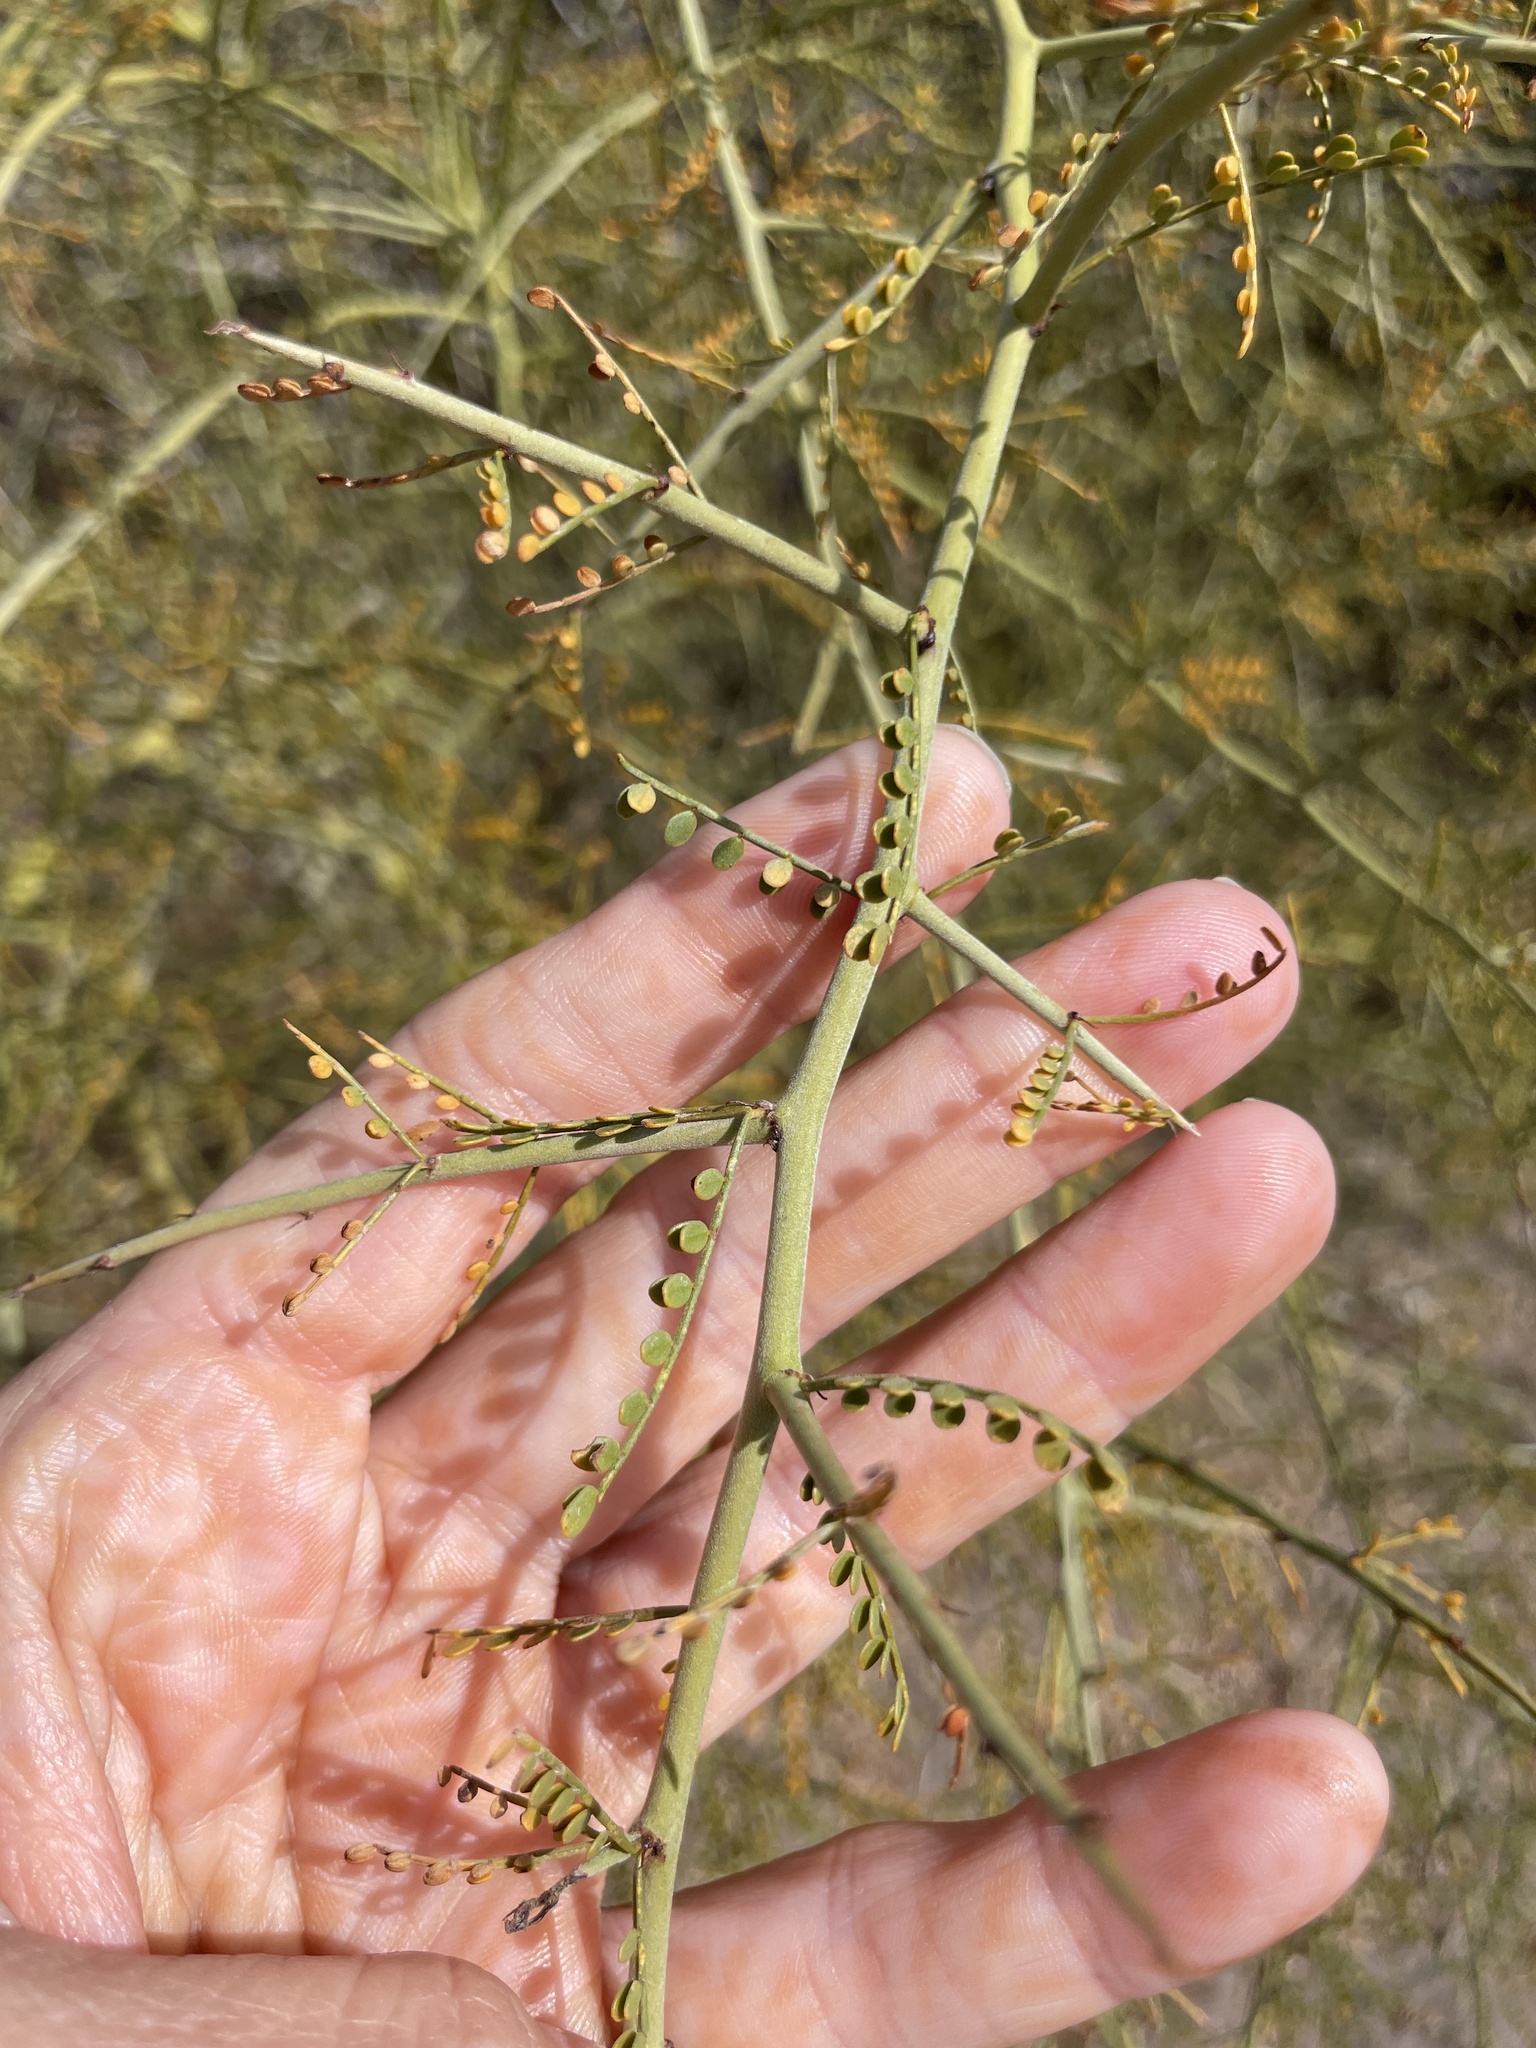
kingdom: Plantae
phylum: Tracheophyta
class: Magnoliopsida
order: Fabales
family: Fabaceae
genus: Parkinsonia
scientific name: Parkinsonia microphylla
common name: Yellow paloverde
